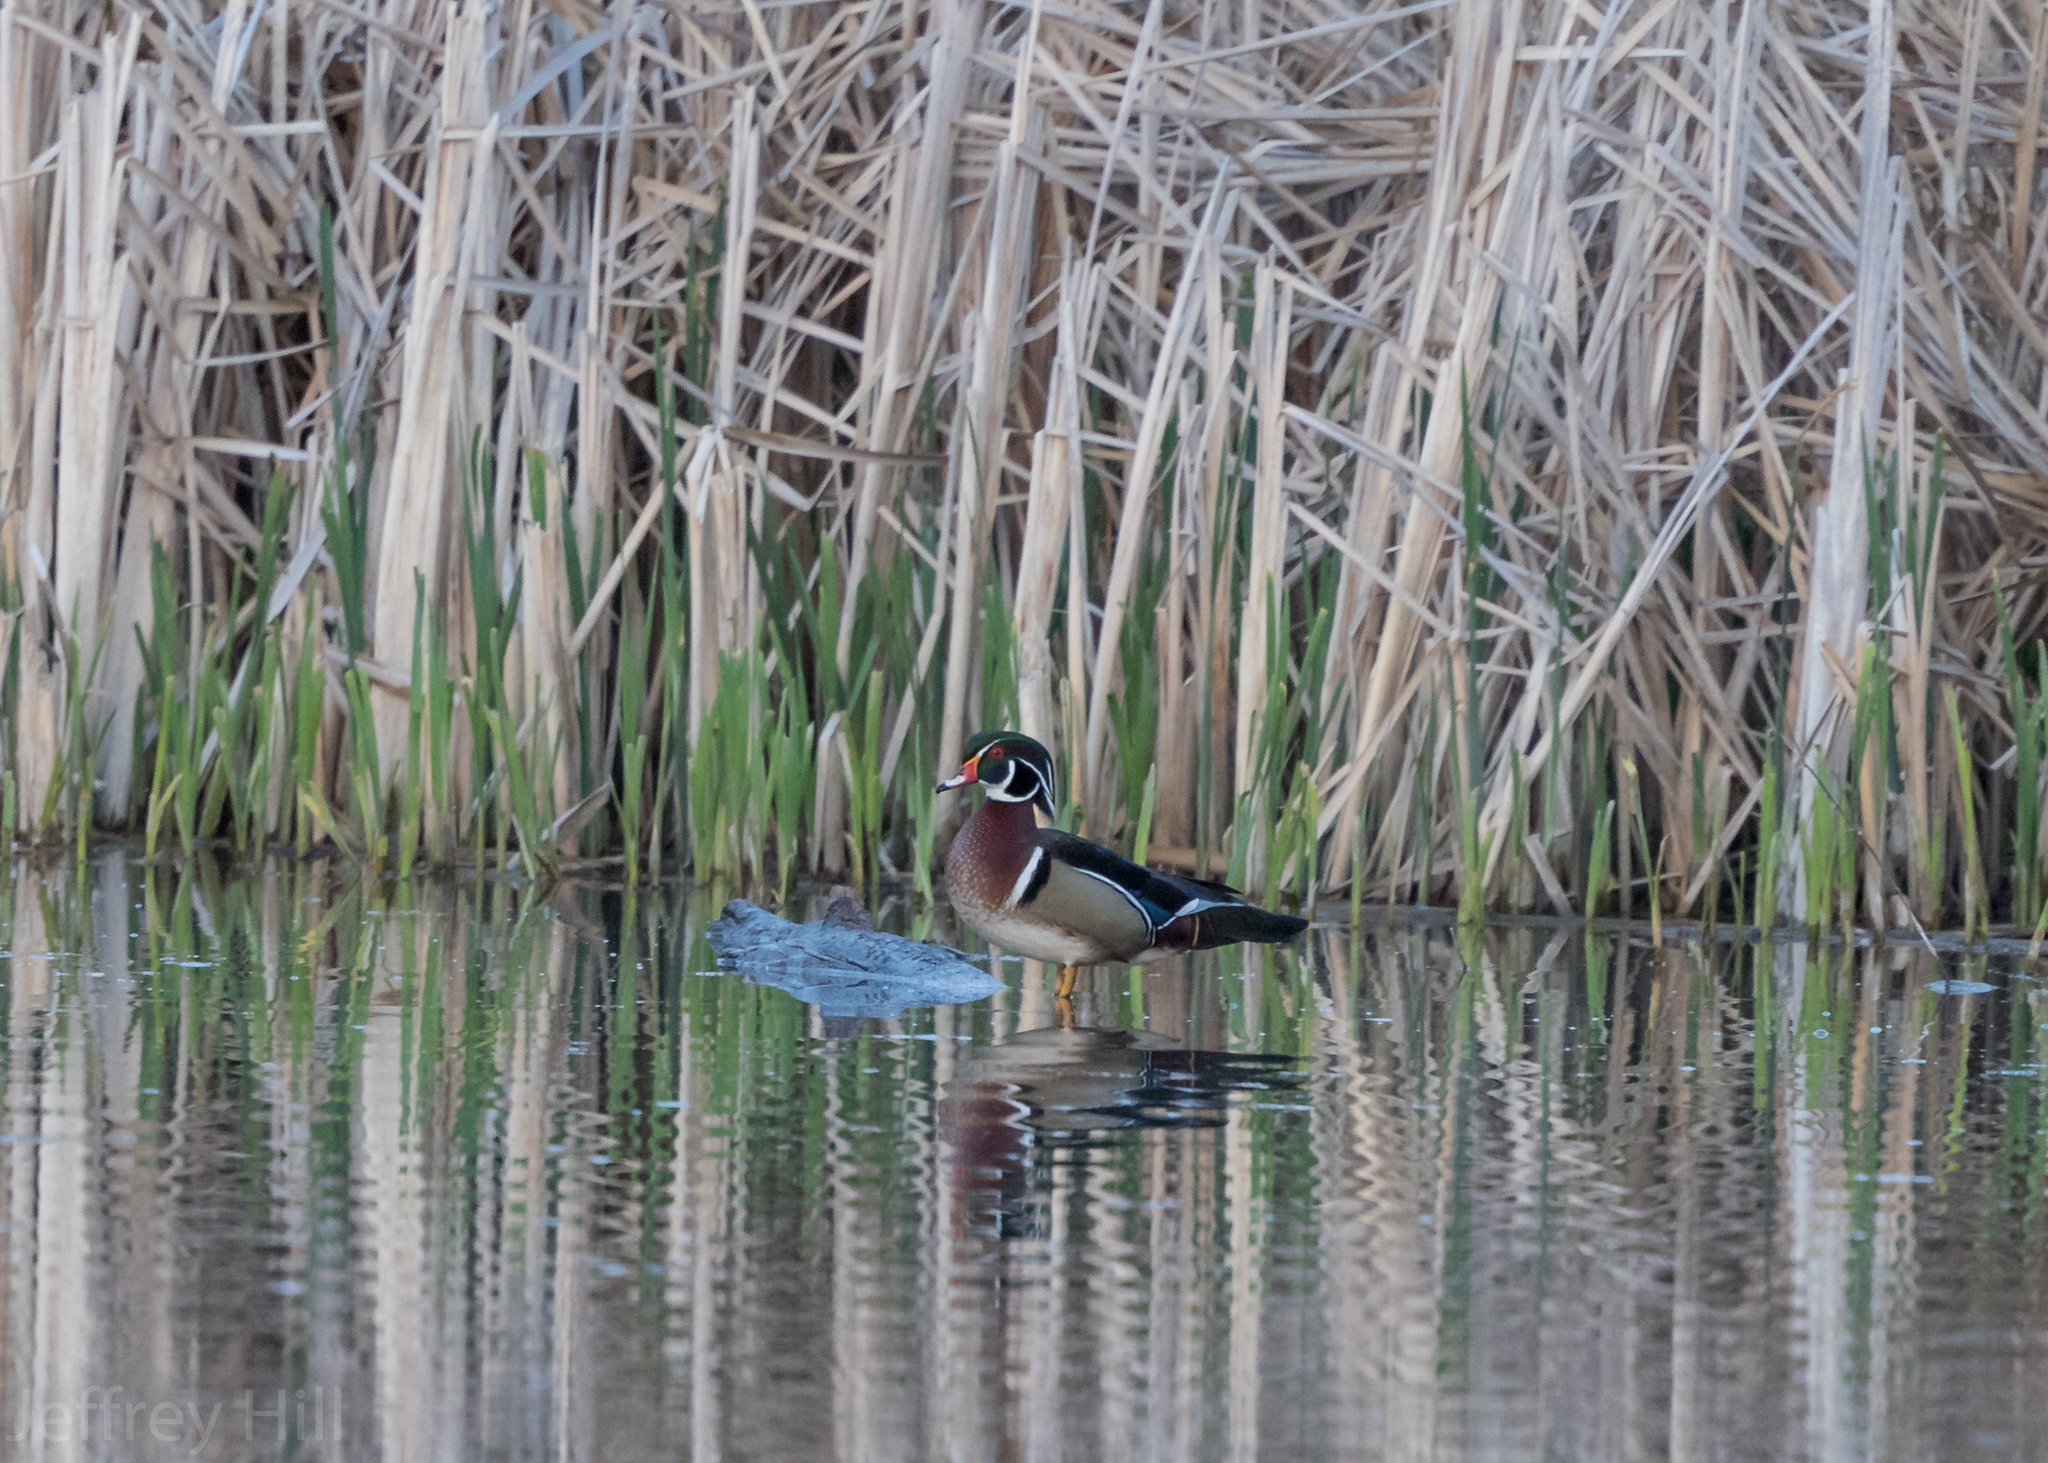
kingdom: Animalia
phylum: Chordata
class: Aves
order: Anseriformes
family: Anatidae
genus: Aix
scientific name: Aix sponsa
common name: Wood duck
